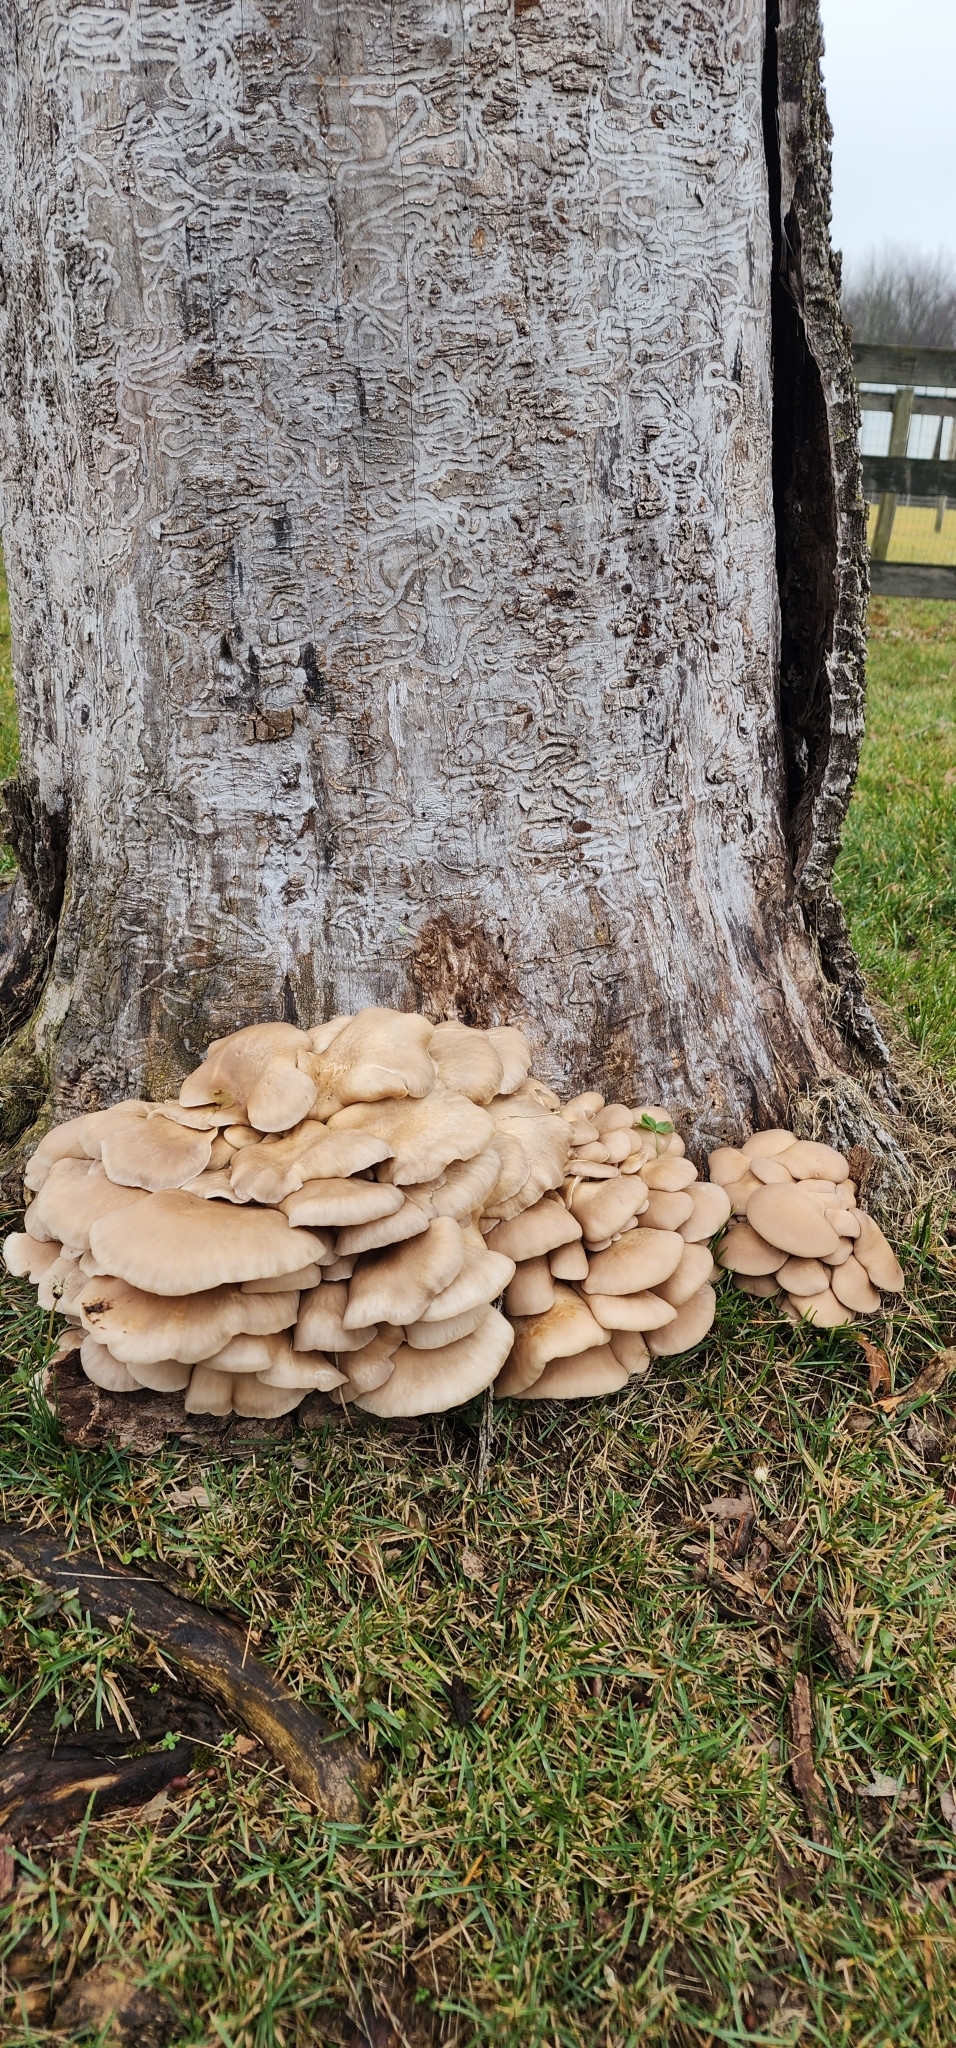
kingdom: Fungi
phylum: Basidiomycota
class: Agaricomycetes
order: Agaricales
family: Pleurotaceae
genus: Pleurotus
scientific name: Pleurotus ostreatus
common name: Oyster mushroom
